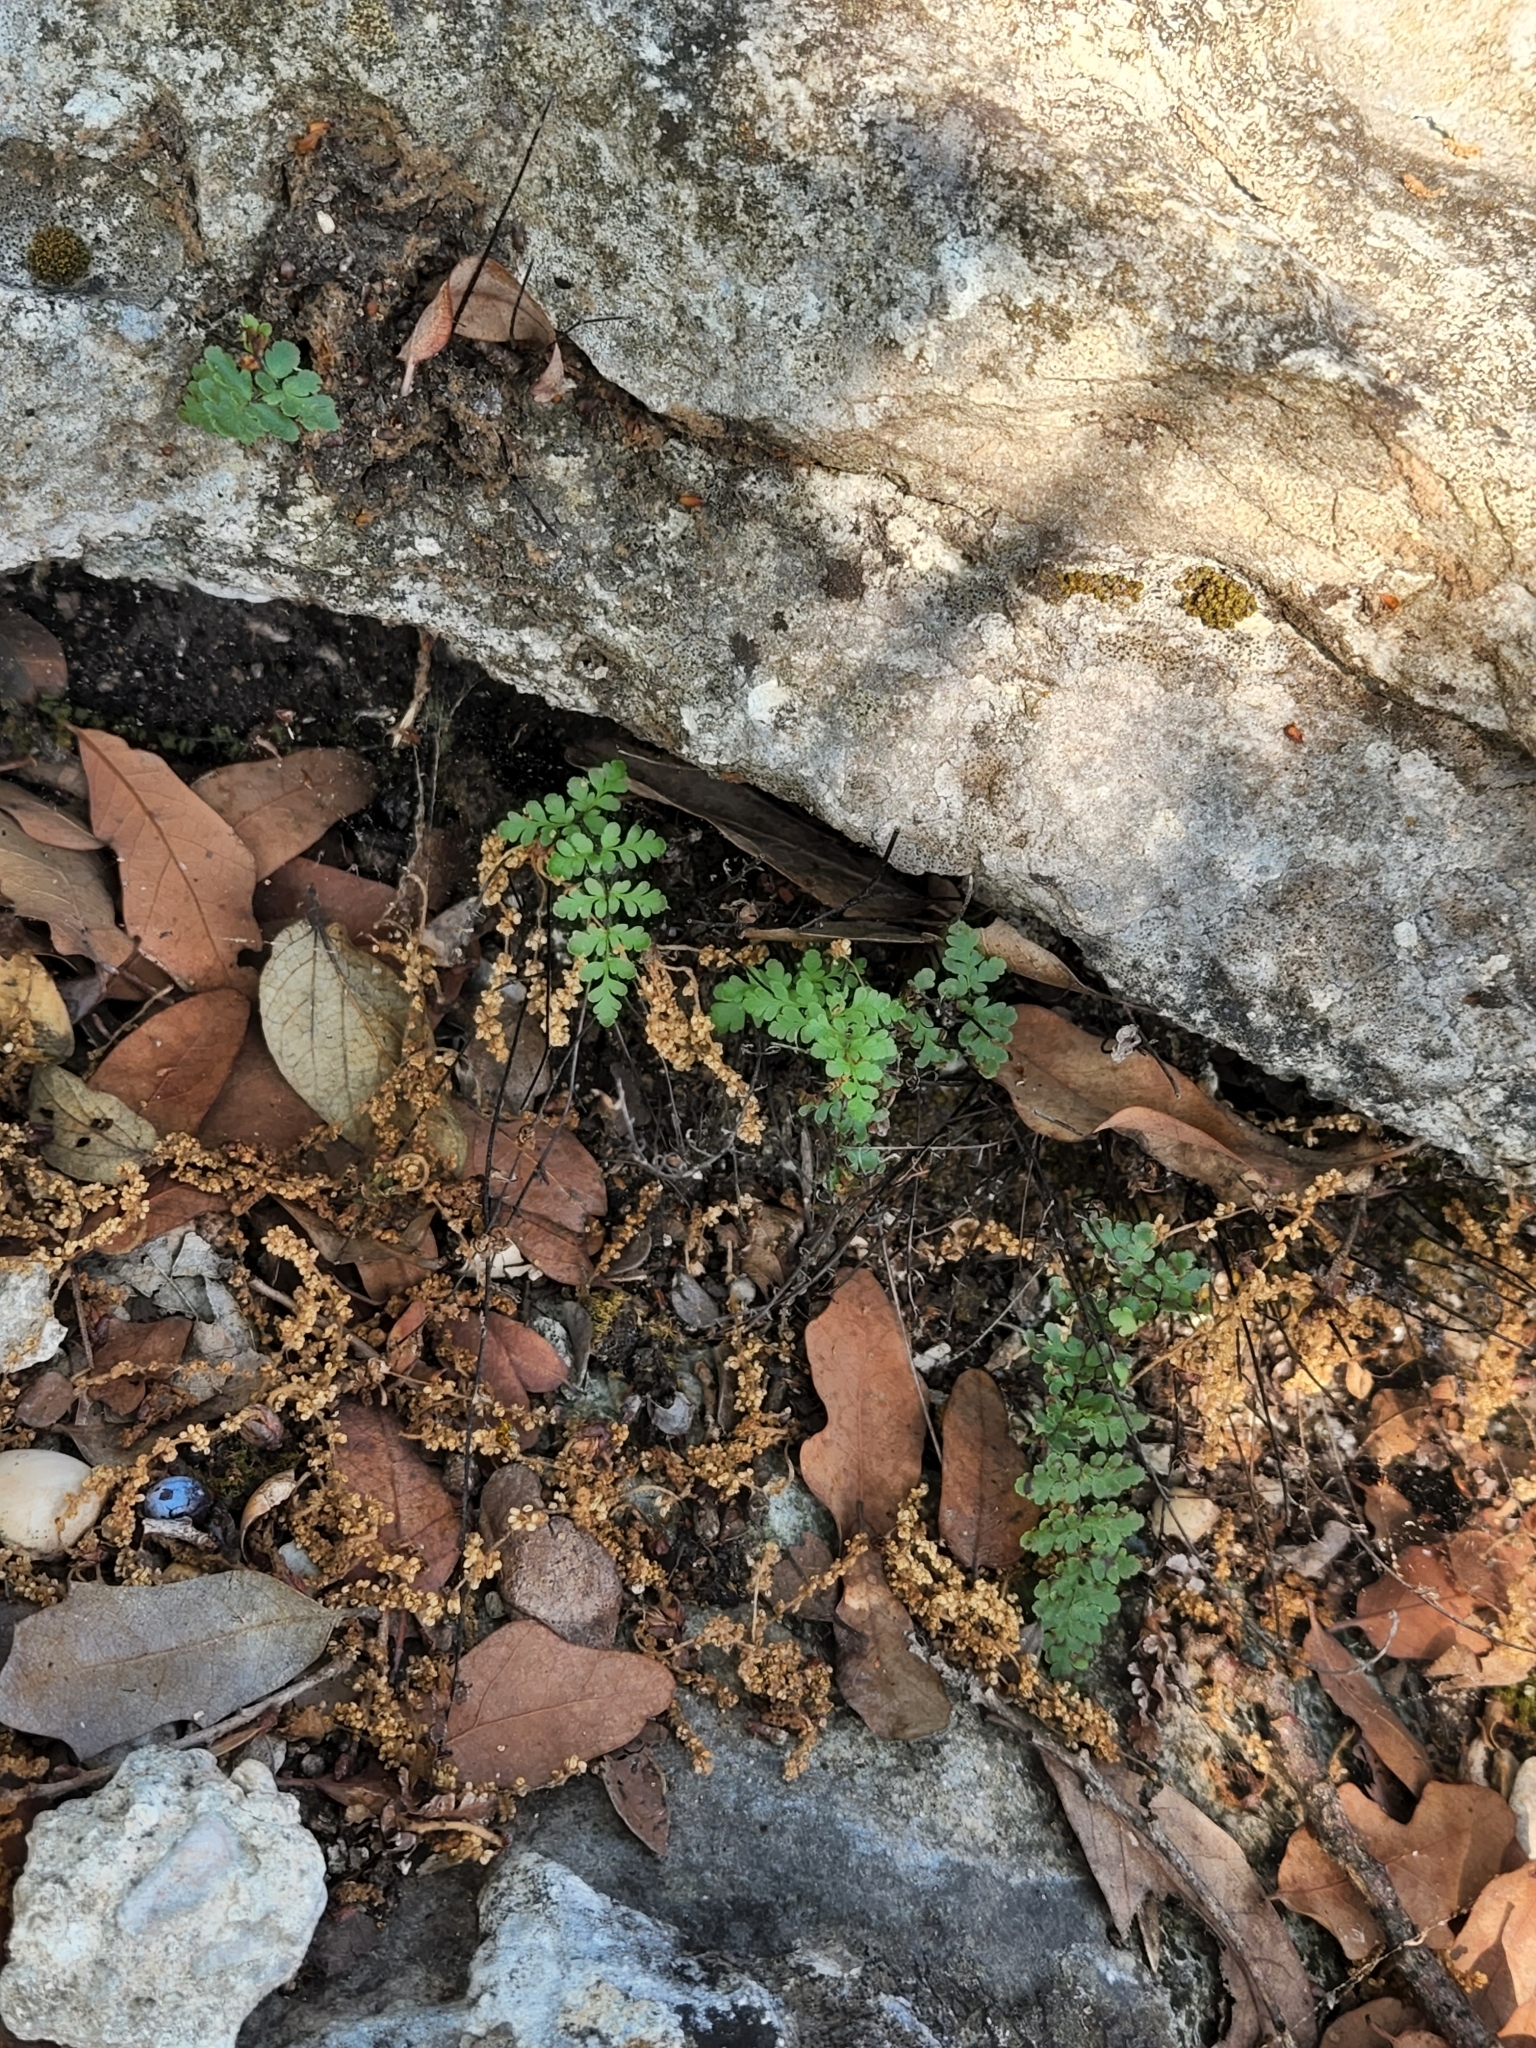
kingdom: Plantae
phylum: Tracheophyta
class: Polypodiopsida
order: Polypodiales
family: Pteridaceae
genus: Myriopteris
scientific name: Myriopteris alabamensis
